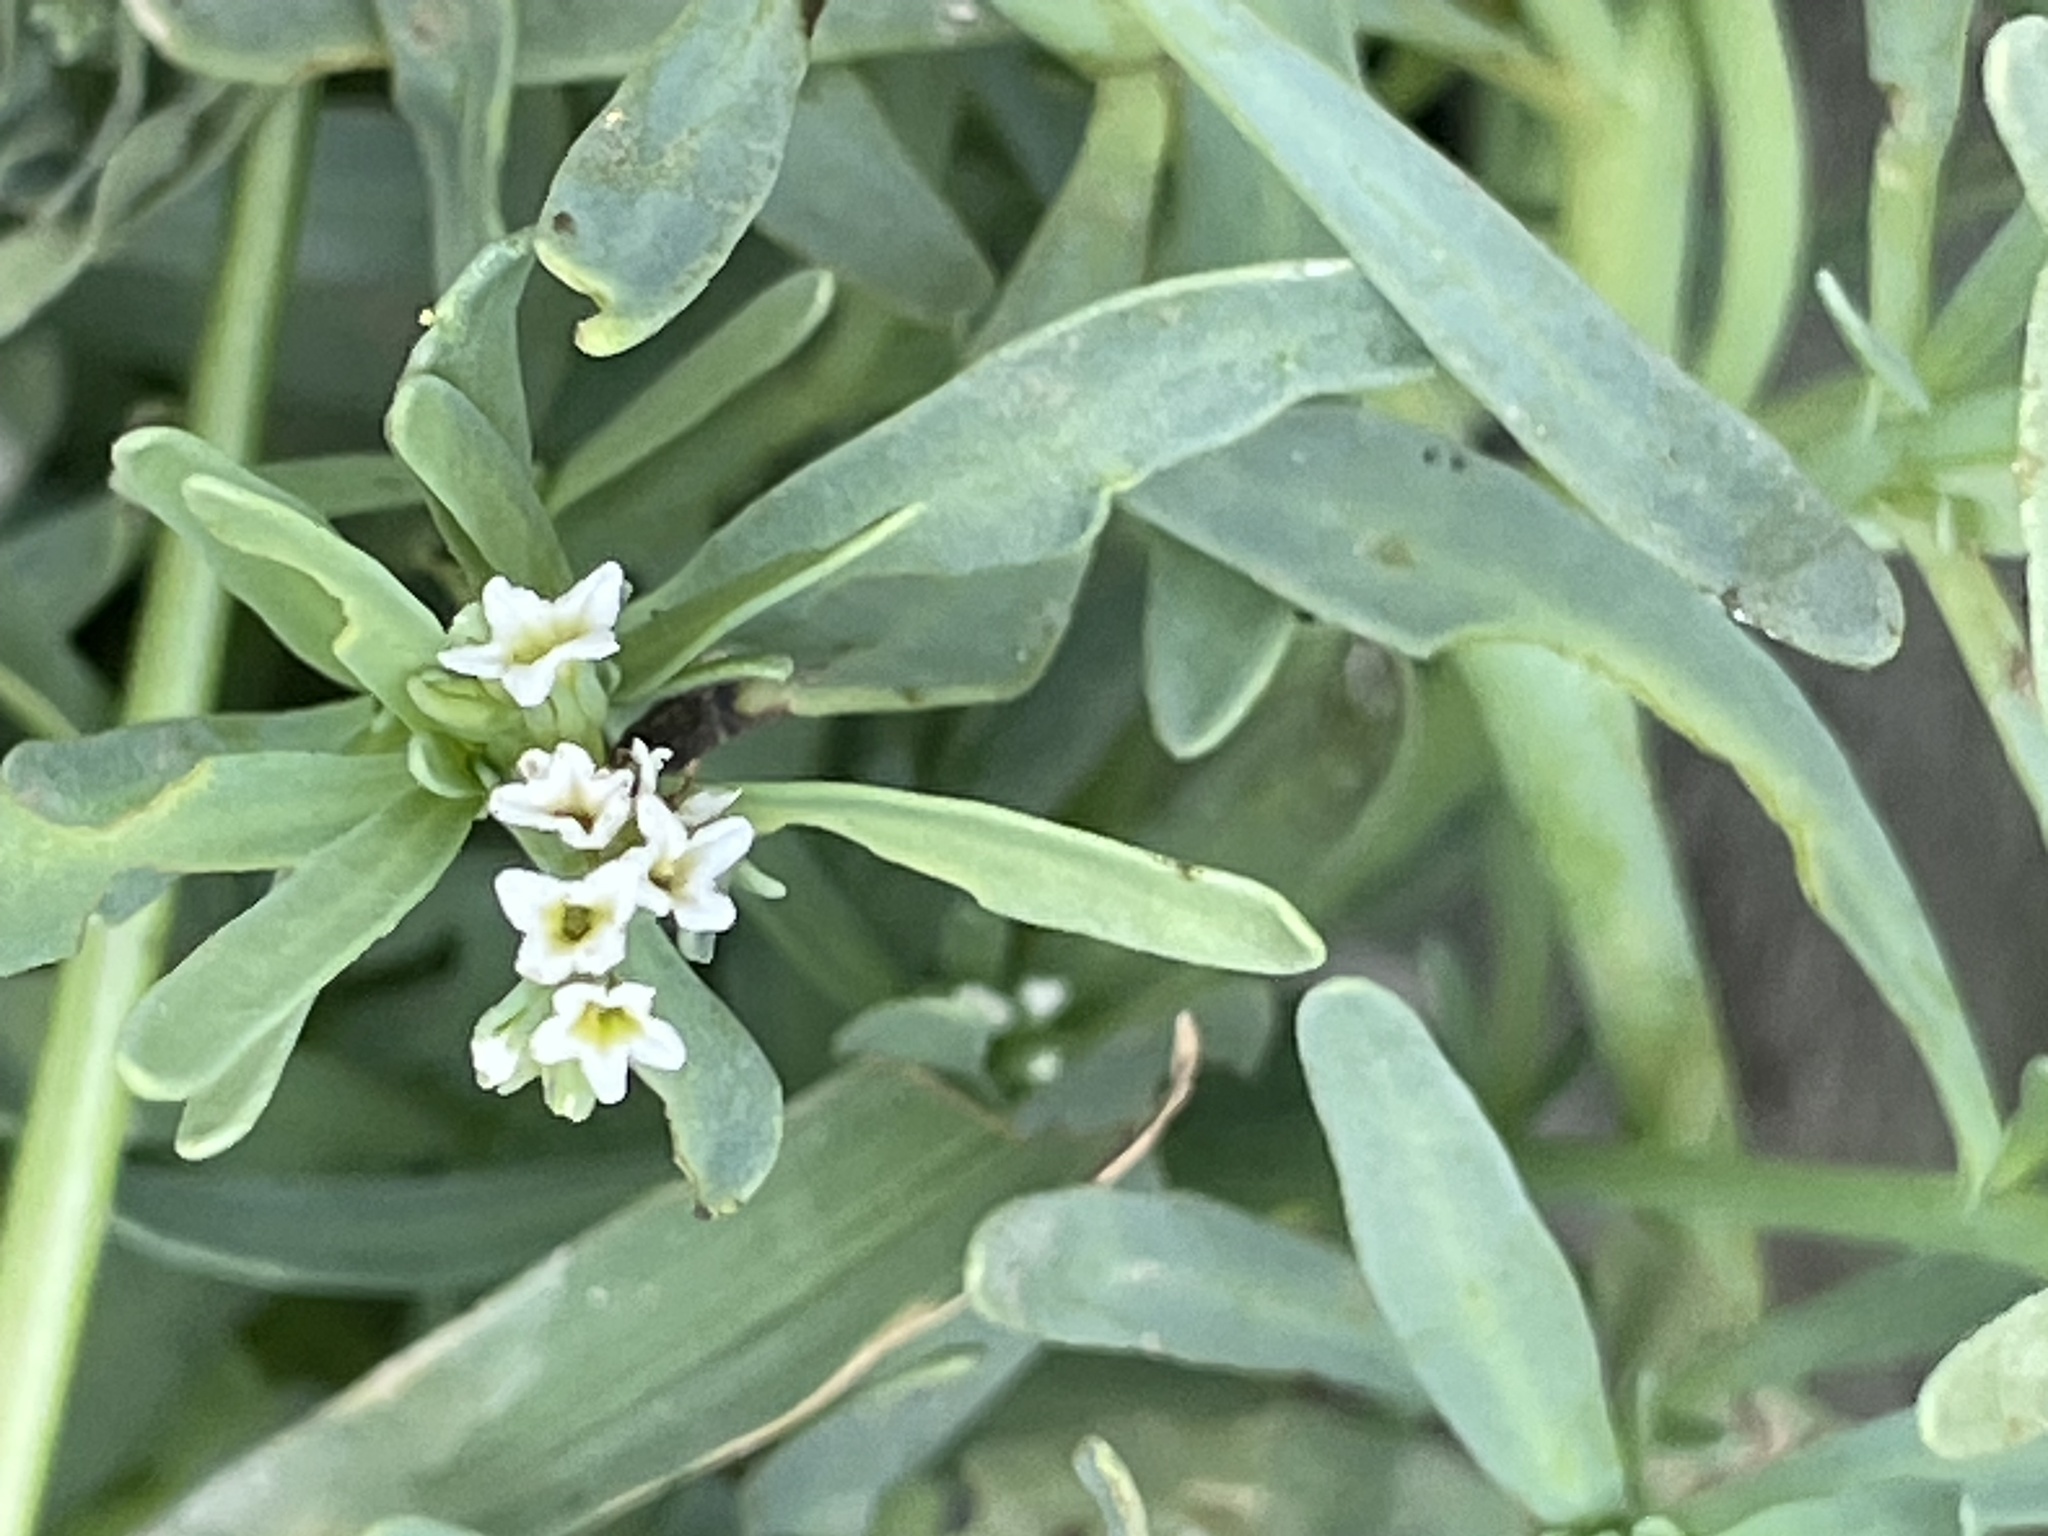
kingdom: Plantae
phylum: Tracheophyta
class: Magnoliopsida
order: Boraginales
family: Heliotropiaceae
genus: Heliotropium
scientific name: Heliotropium curassavicum
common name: Seaside heliotrope
